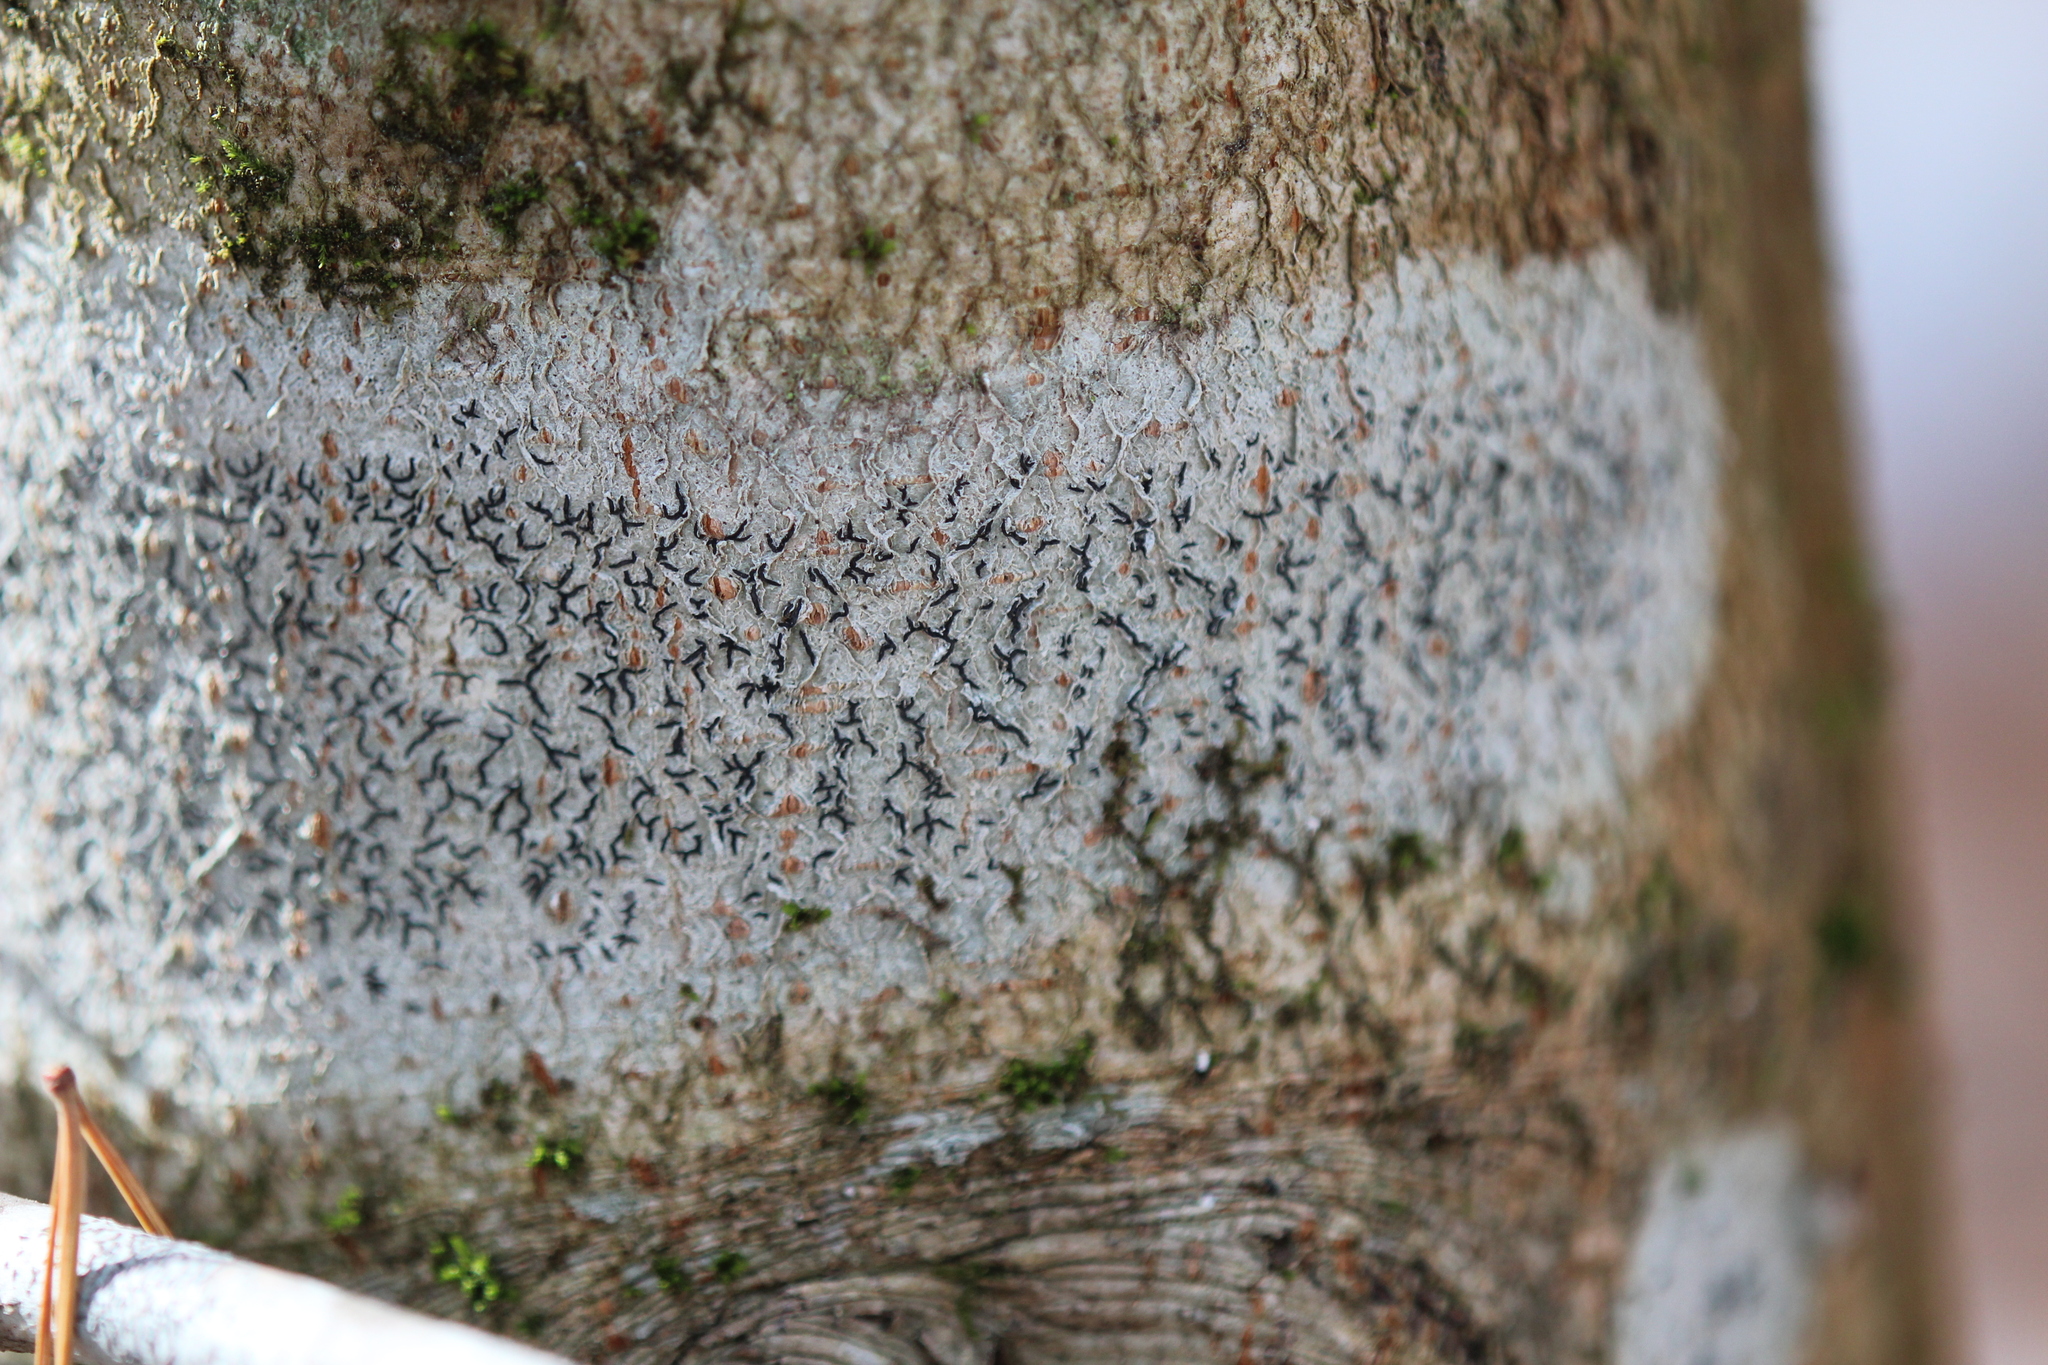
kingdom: Fungi
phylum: Ascomycota
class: Lecanoromycetes
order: Ostropales
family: Graphidaceae
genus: Graphis
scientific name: Graphis scripta
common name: Script lichen
